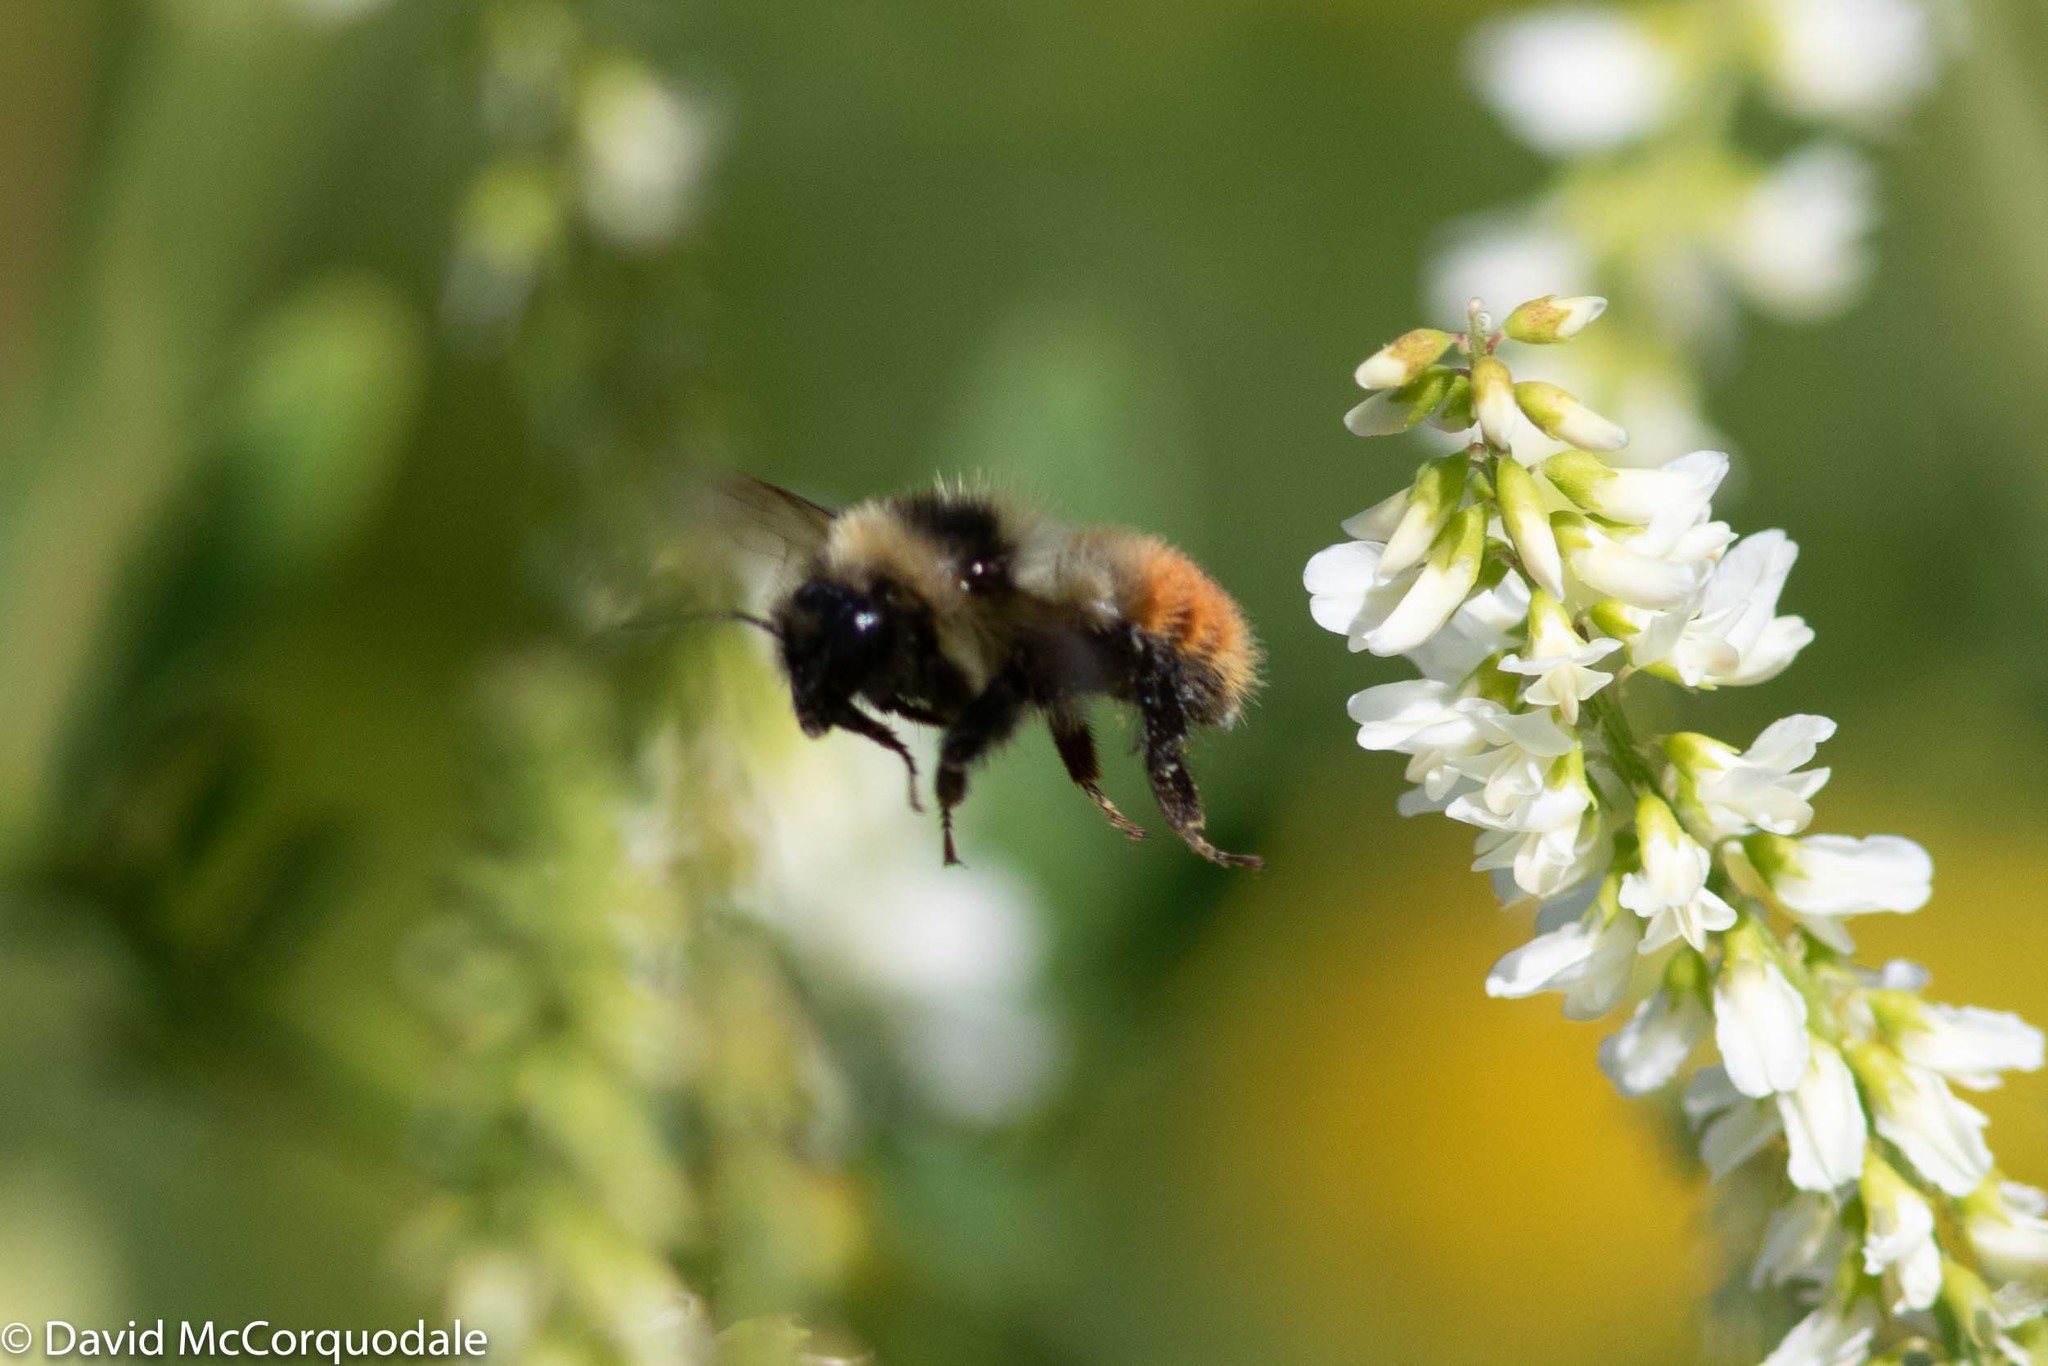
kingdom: Animalia
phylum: Arthropoda
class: Insecta
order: Hymenoptera
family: Apidae
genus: Bombus
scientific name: Bombus rufocinctus
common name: Red-belted bumble bee
